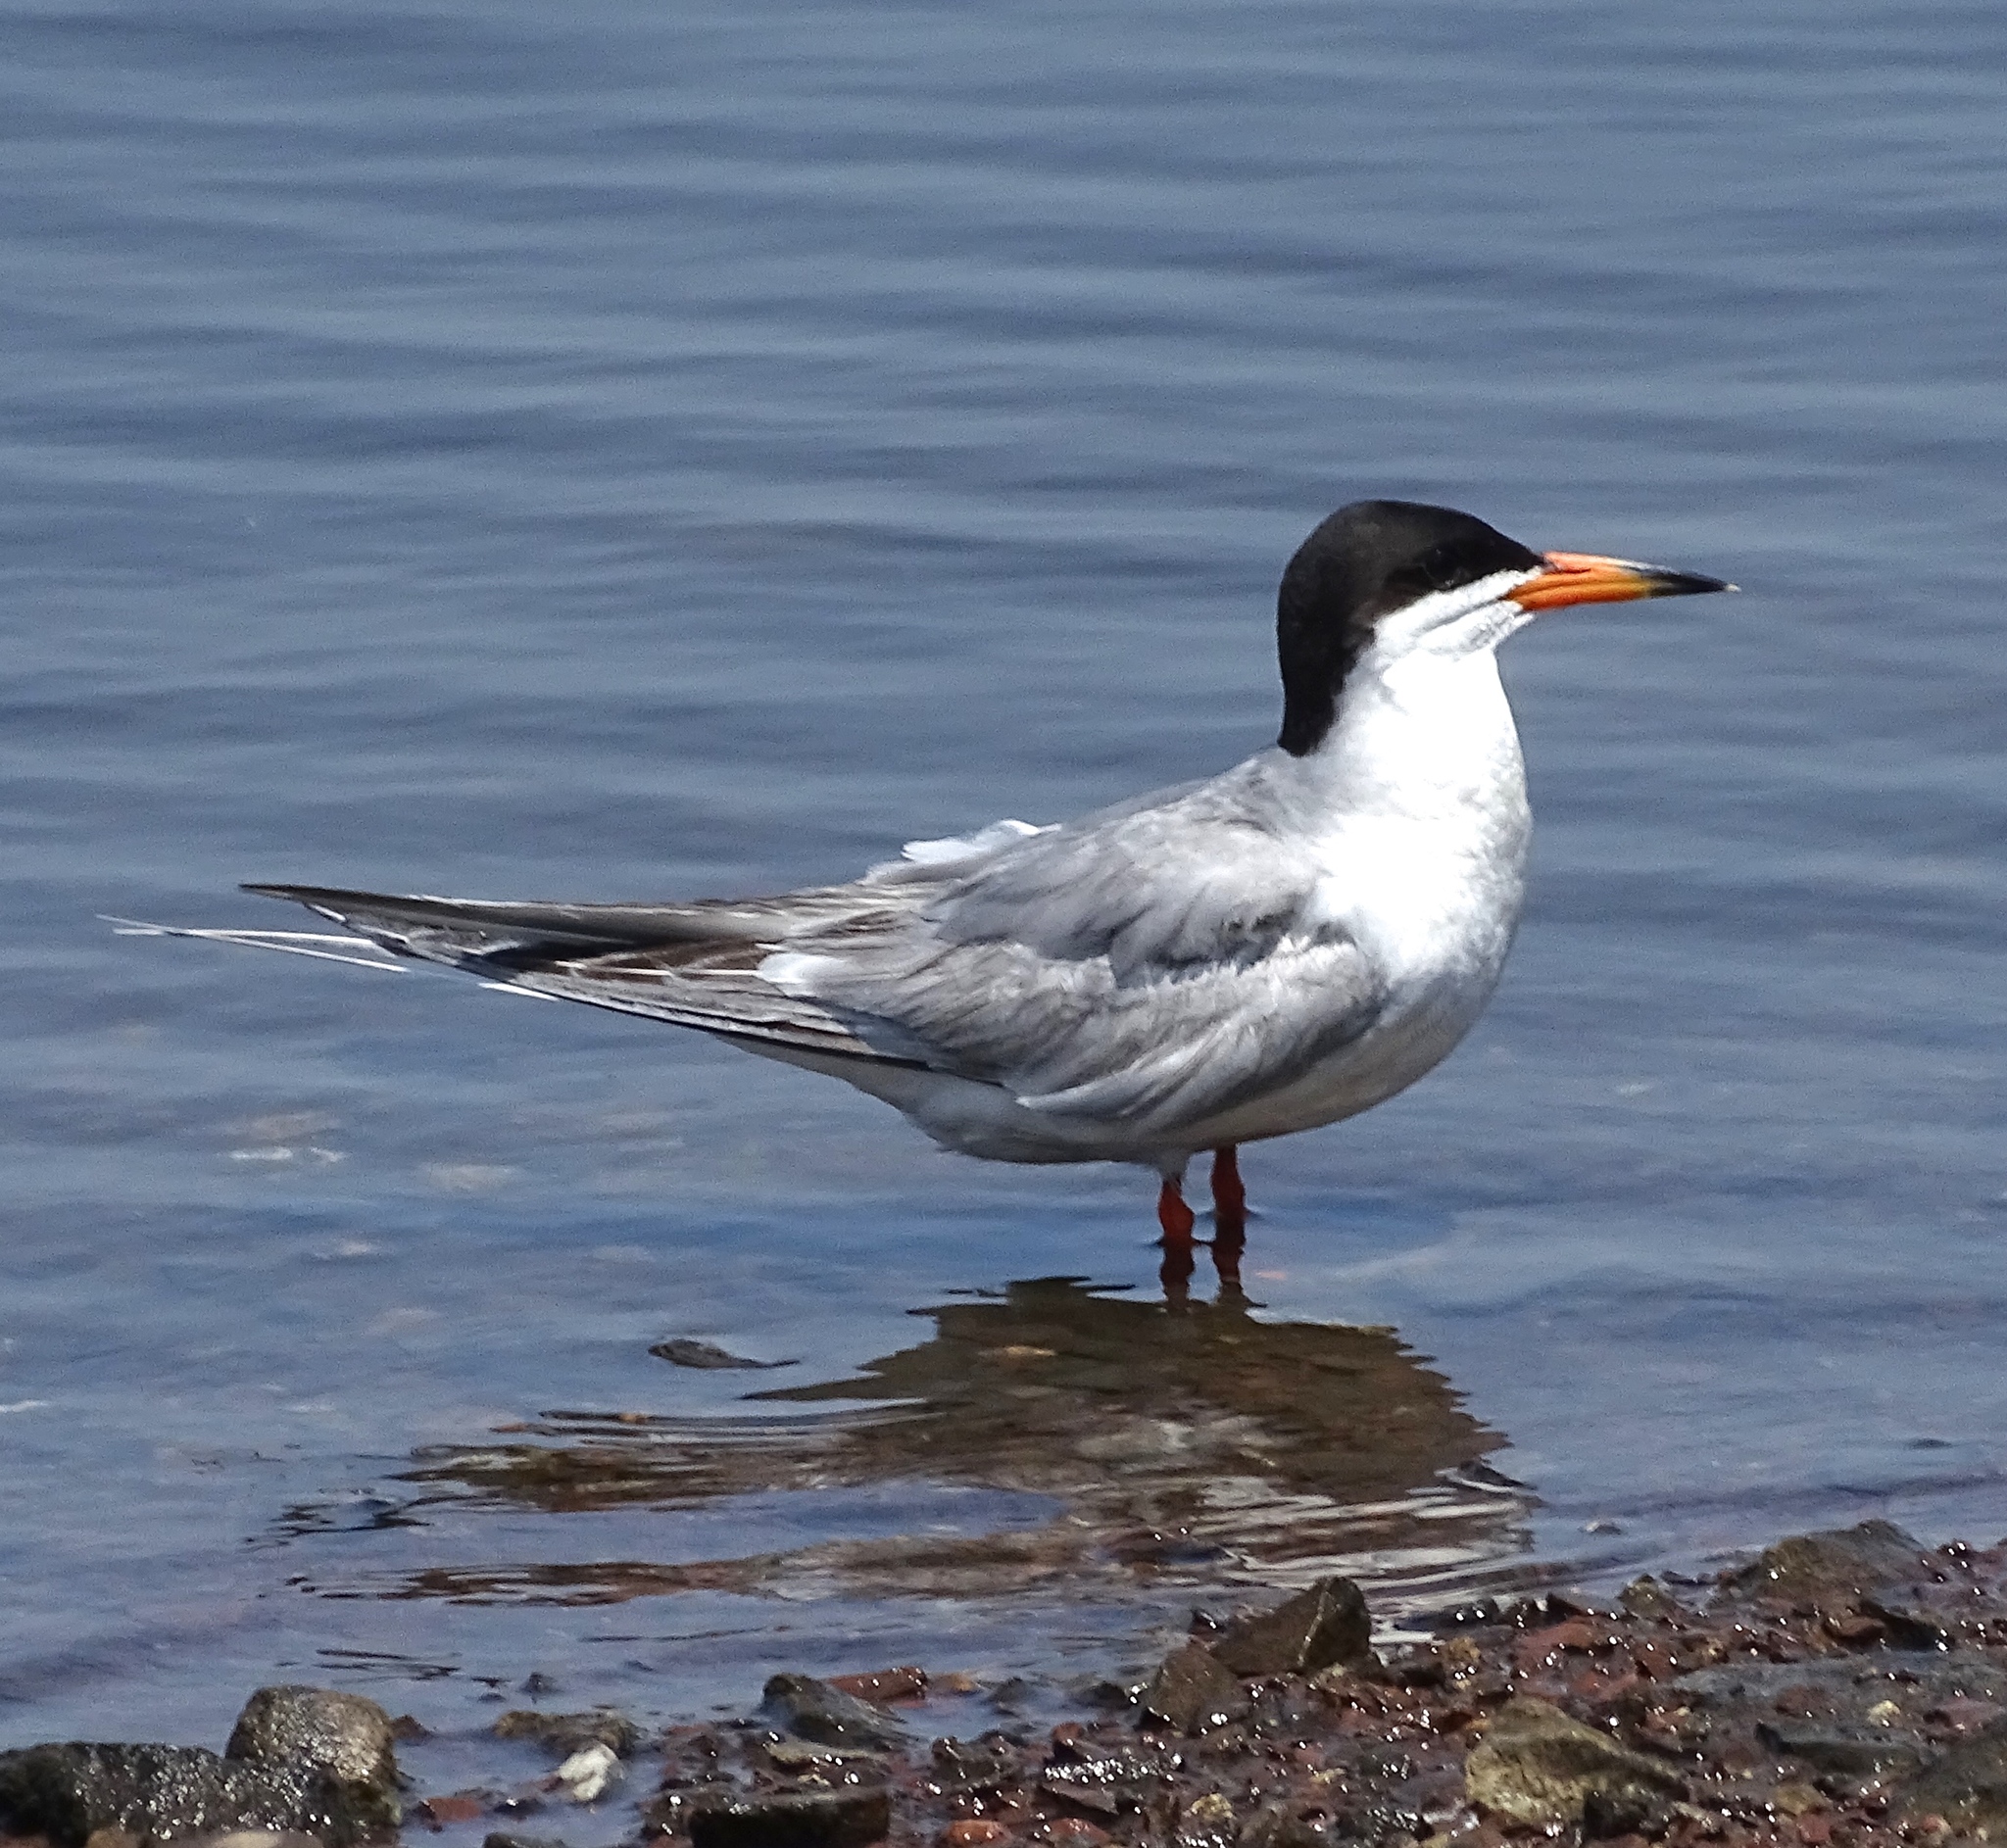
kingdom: Animalia
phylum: Chordata
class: Aves
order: Charadriiformes
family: Laridae
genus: Sterna
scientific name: Sterna forsteri
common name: Forster's tern
